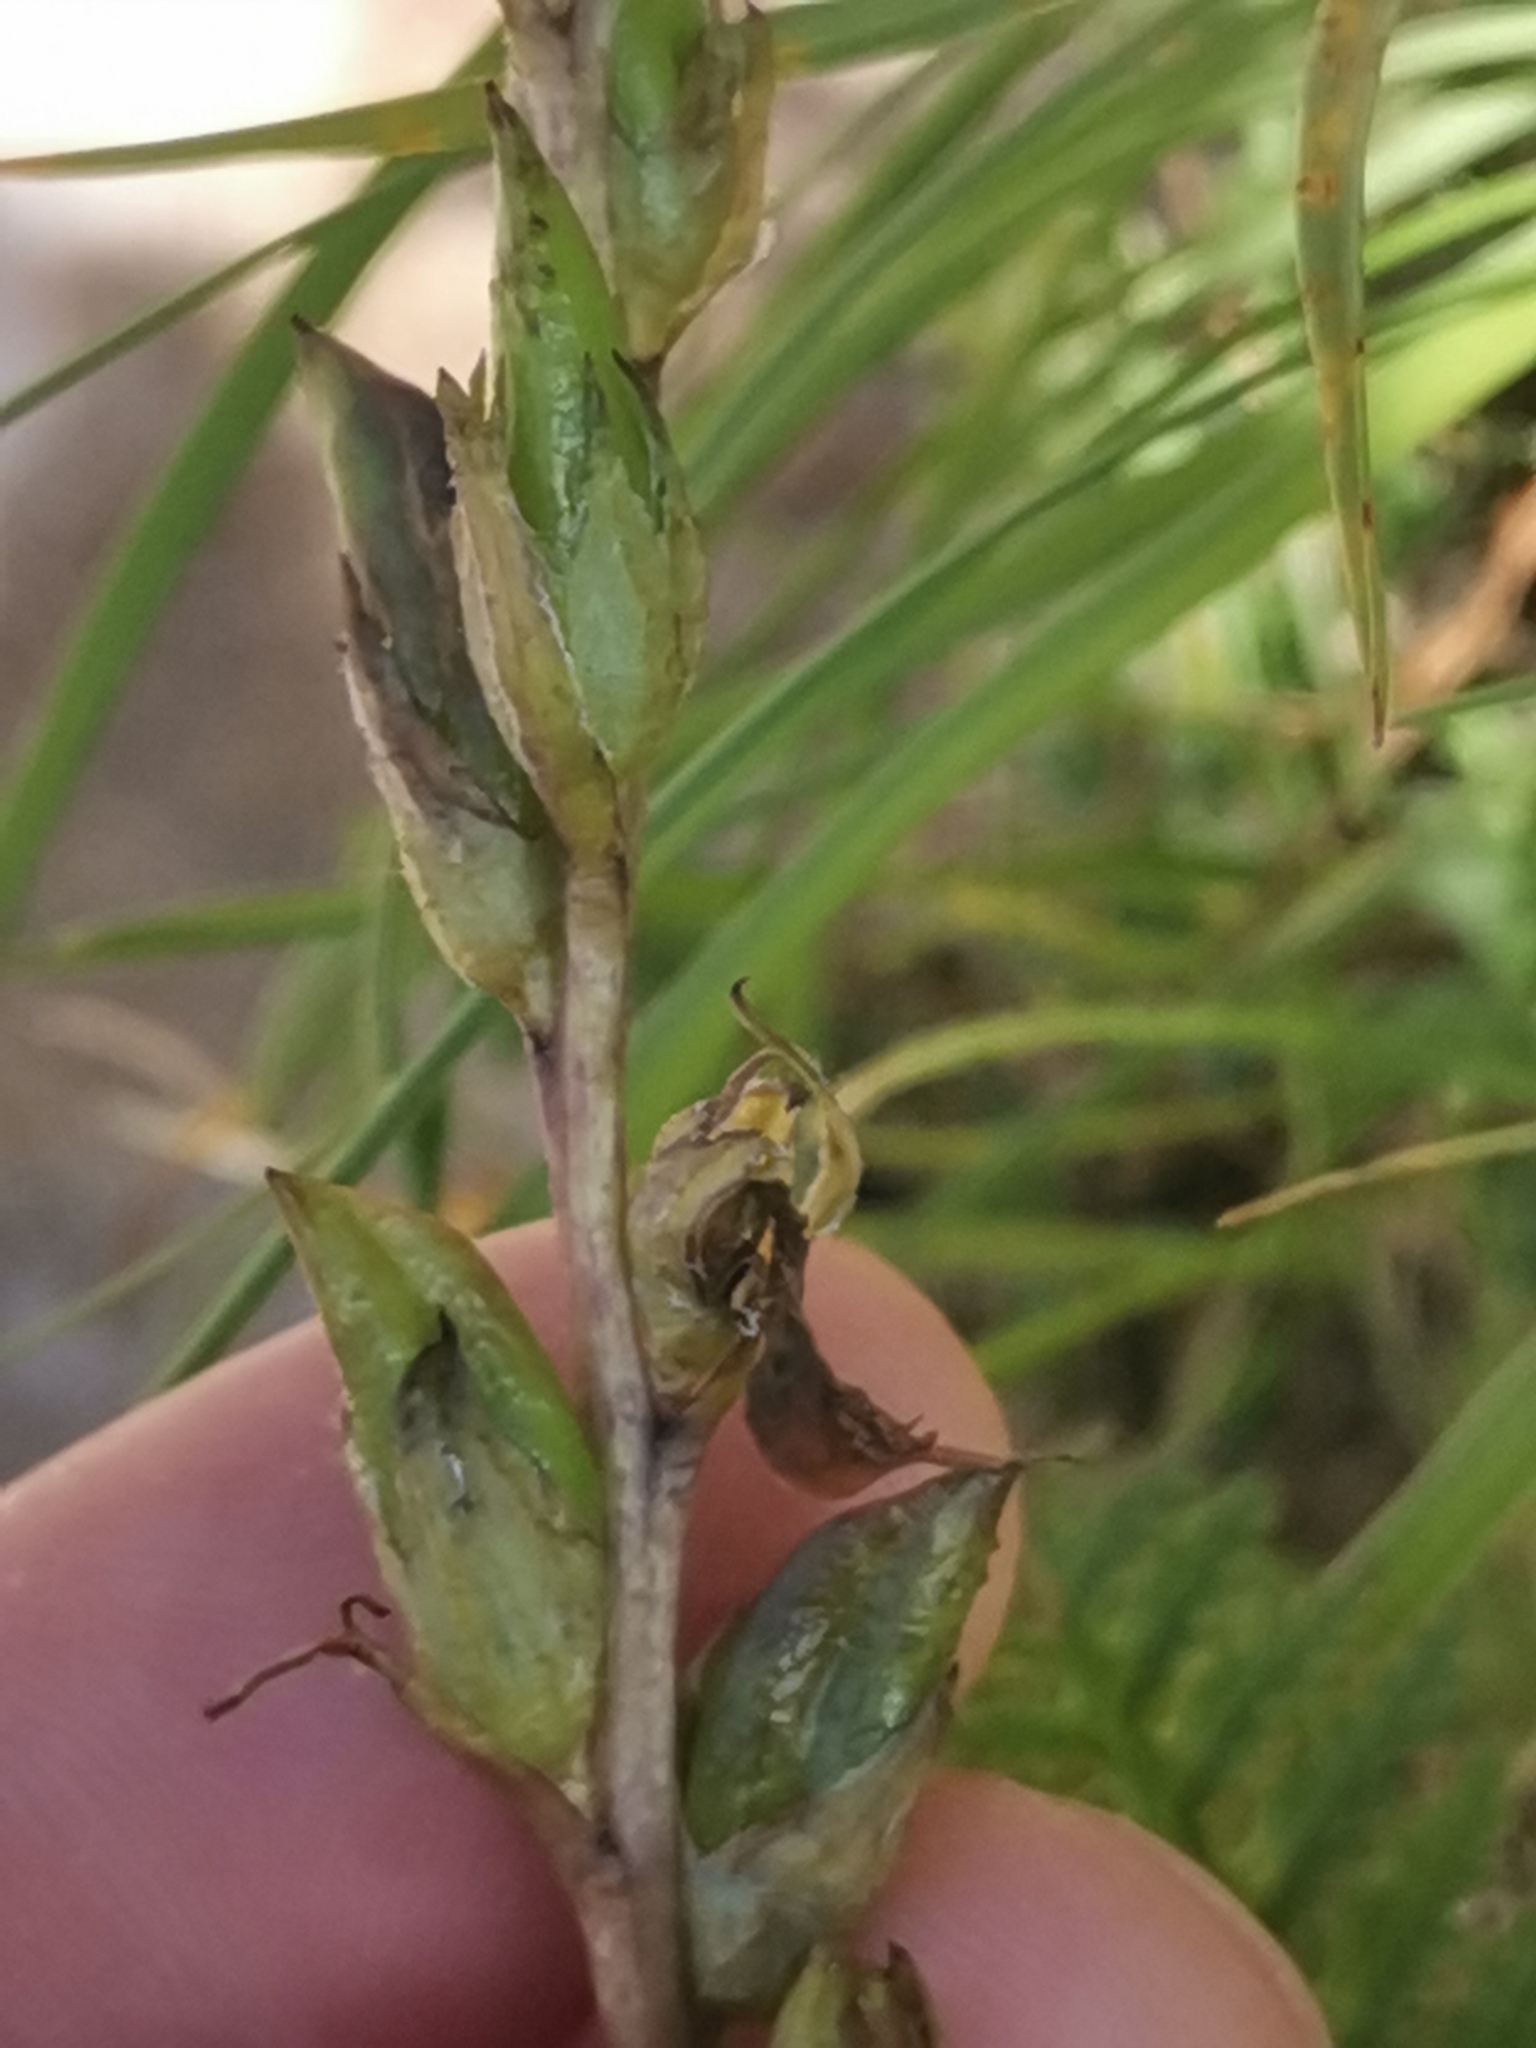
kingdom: Plantae
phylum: Tracheophyta
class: Magnoliopsida
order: Lamiales
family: Orobanchaceae
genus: Pedicularis
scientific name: Pedicularis rostratospicata
